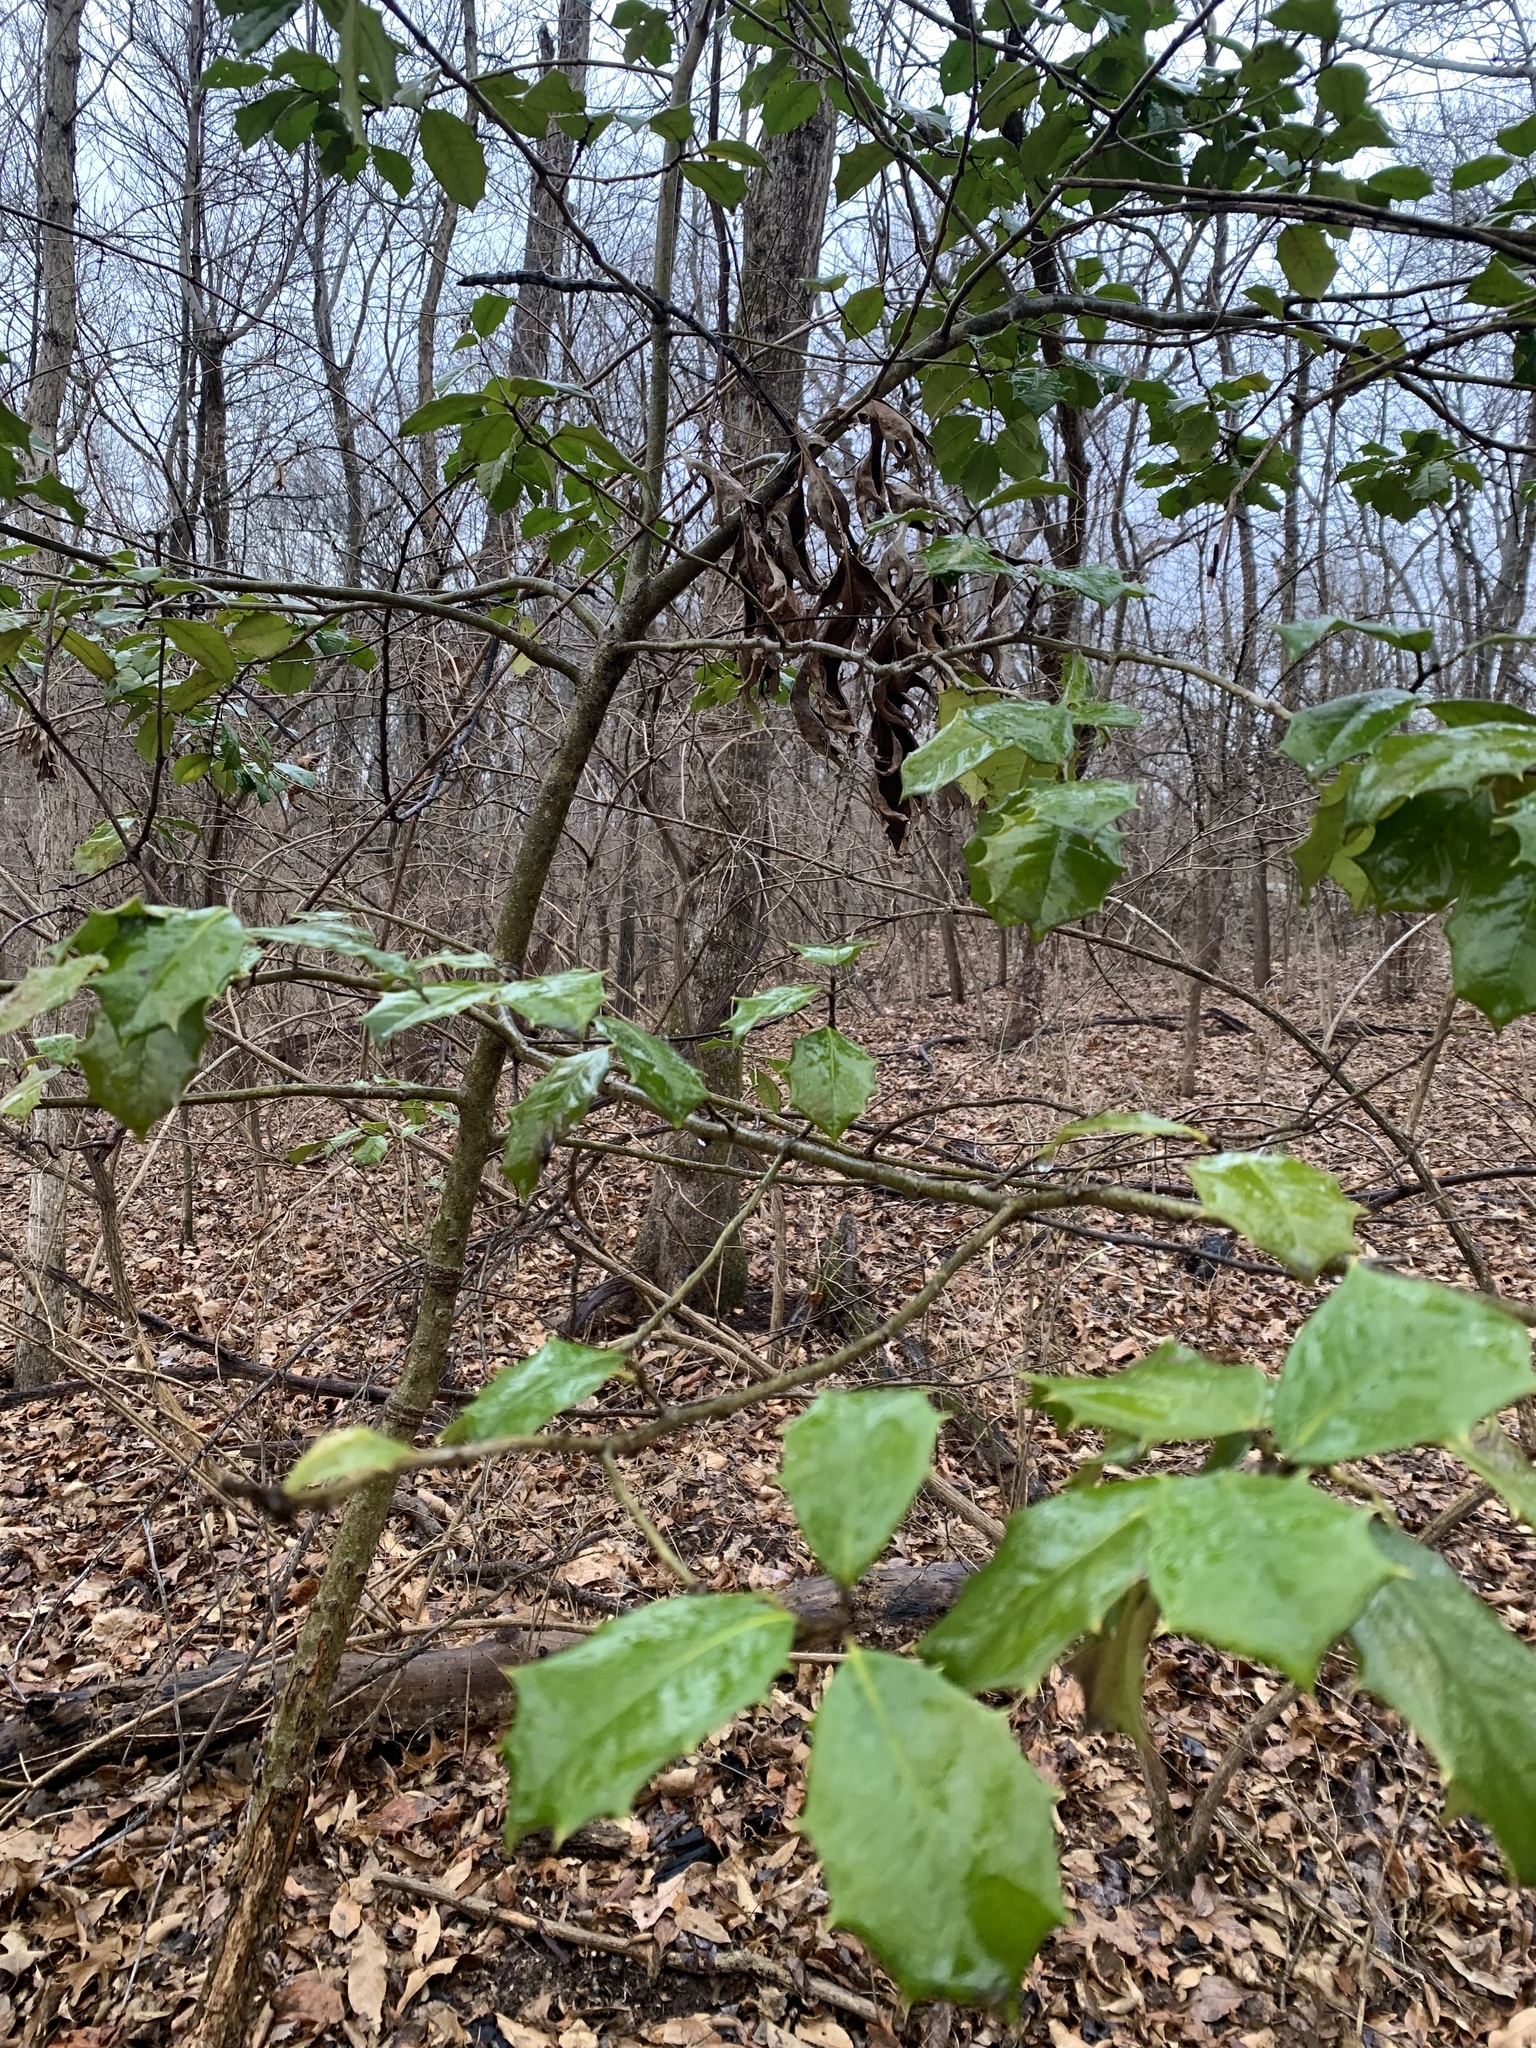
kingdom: Plantae
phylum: Tracheophyta
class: Magnoliopsida
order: Aquifoliales
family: Aquifoliaceae
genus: Ilex
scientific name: Ilex opaca
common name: American holly
